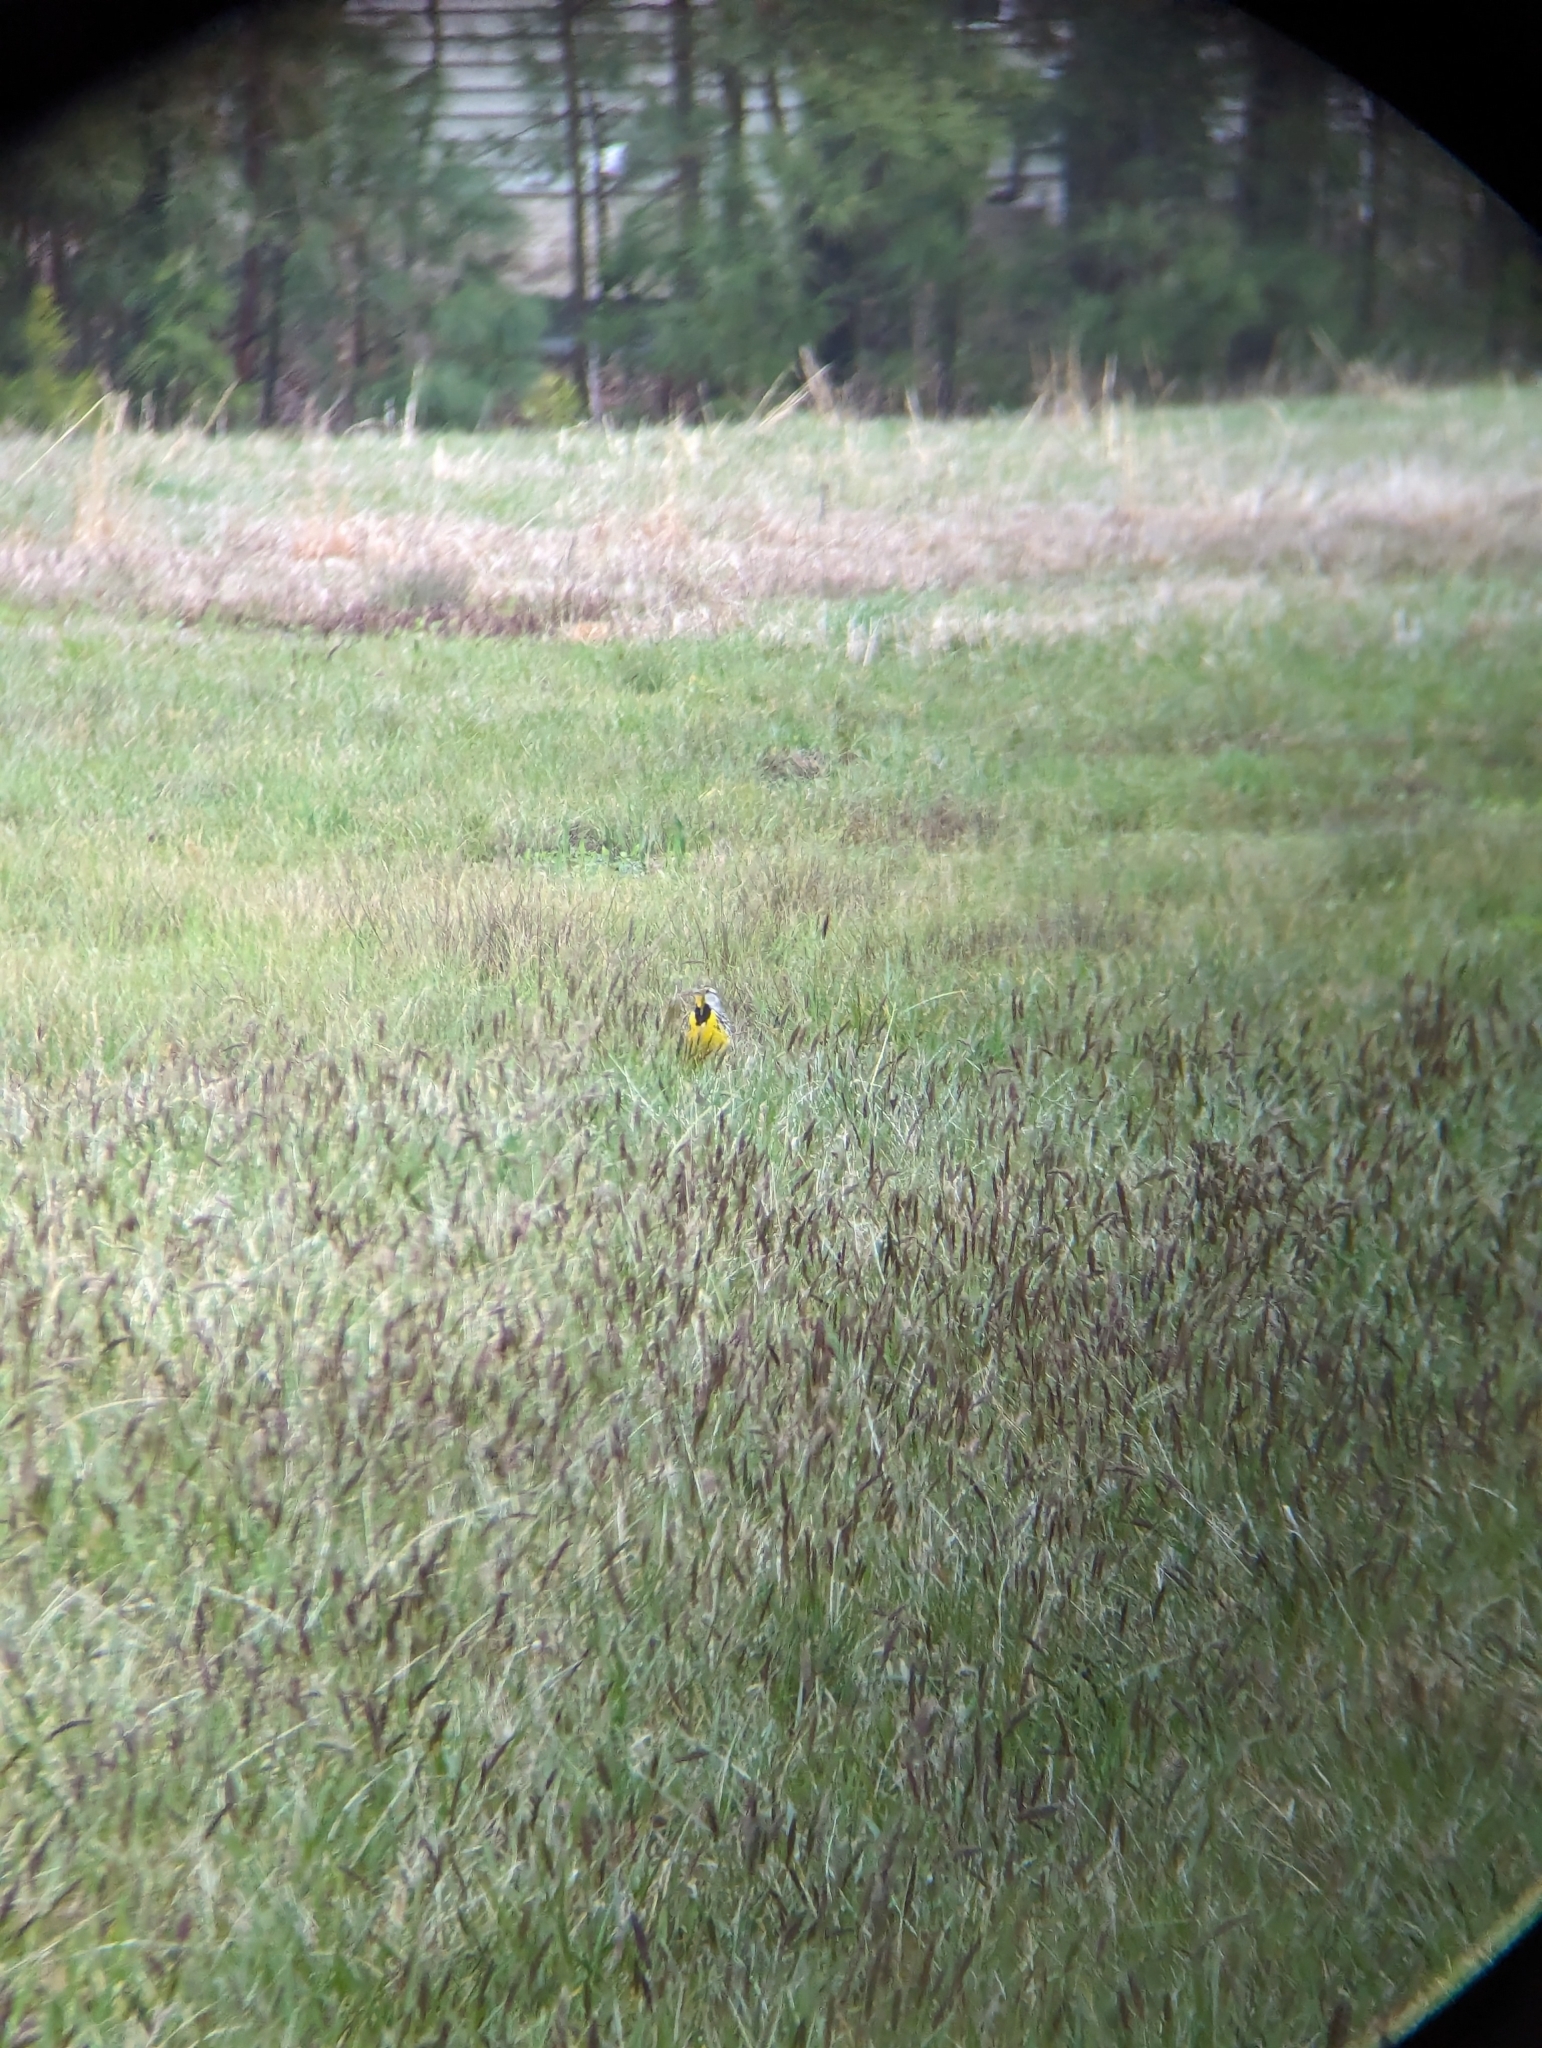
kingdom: Animalia
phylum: Chordata
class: Aves
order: Passeriformes
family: Icteridae
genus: Sturnella
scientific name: Sturnella magna
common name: Eastern meadowlark
